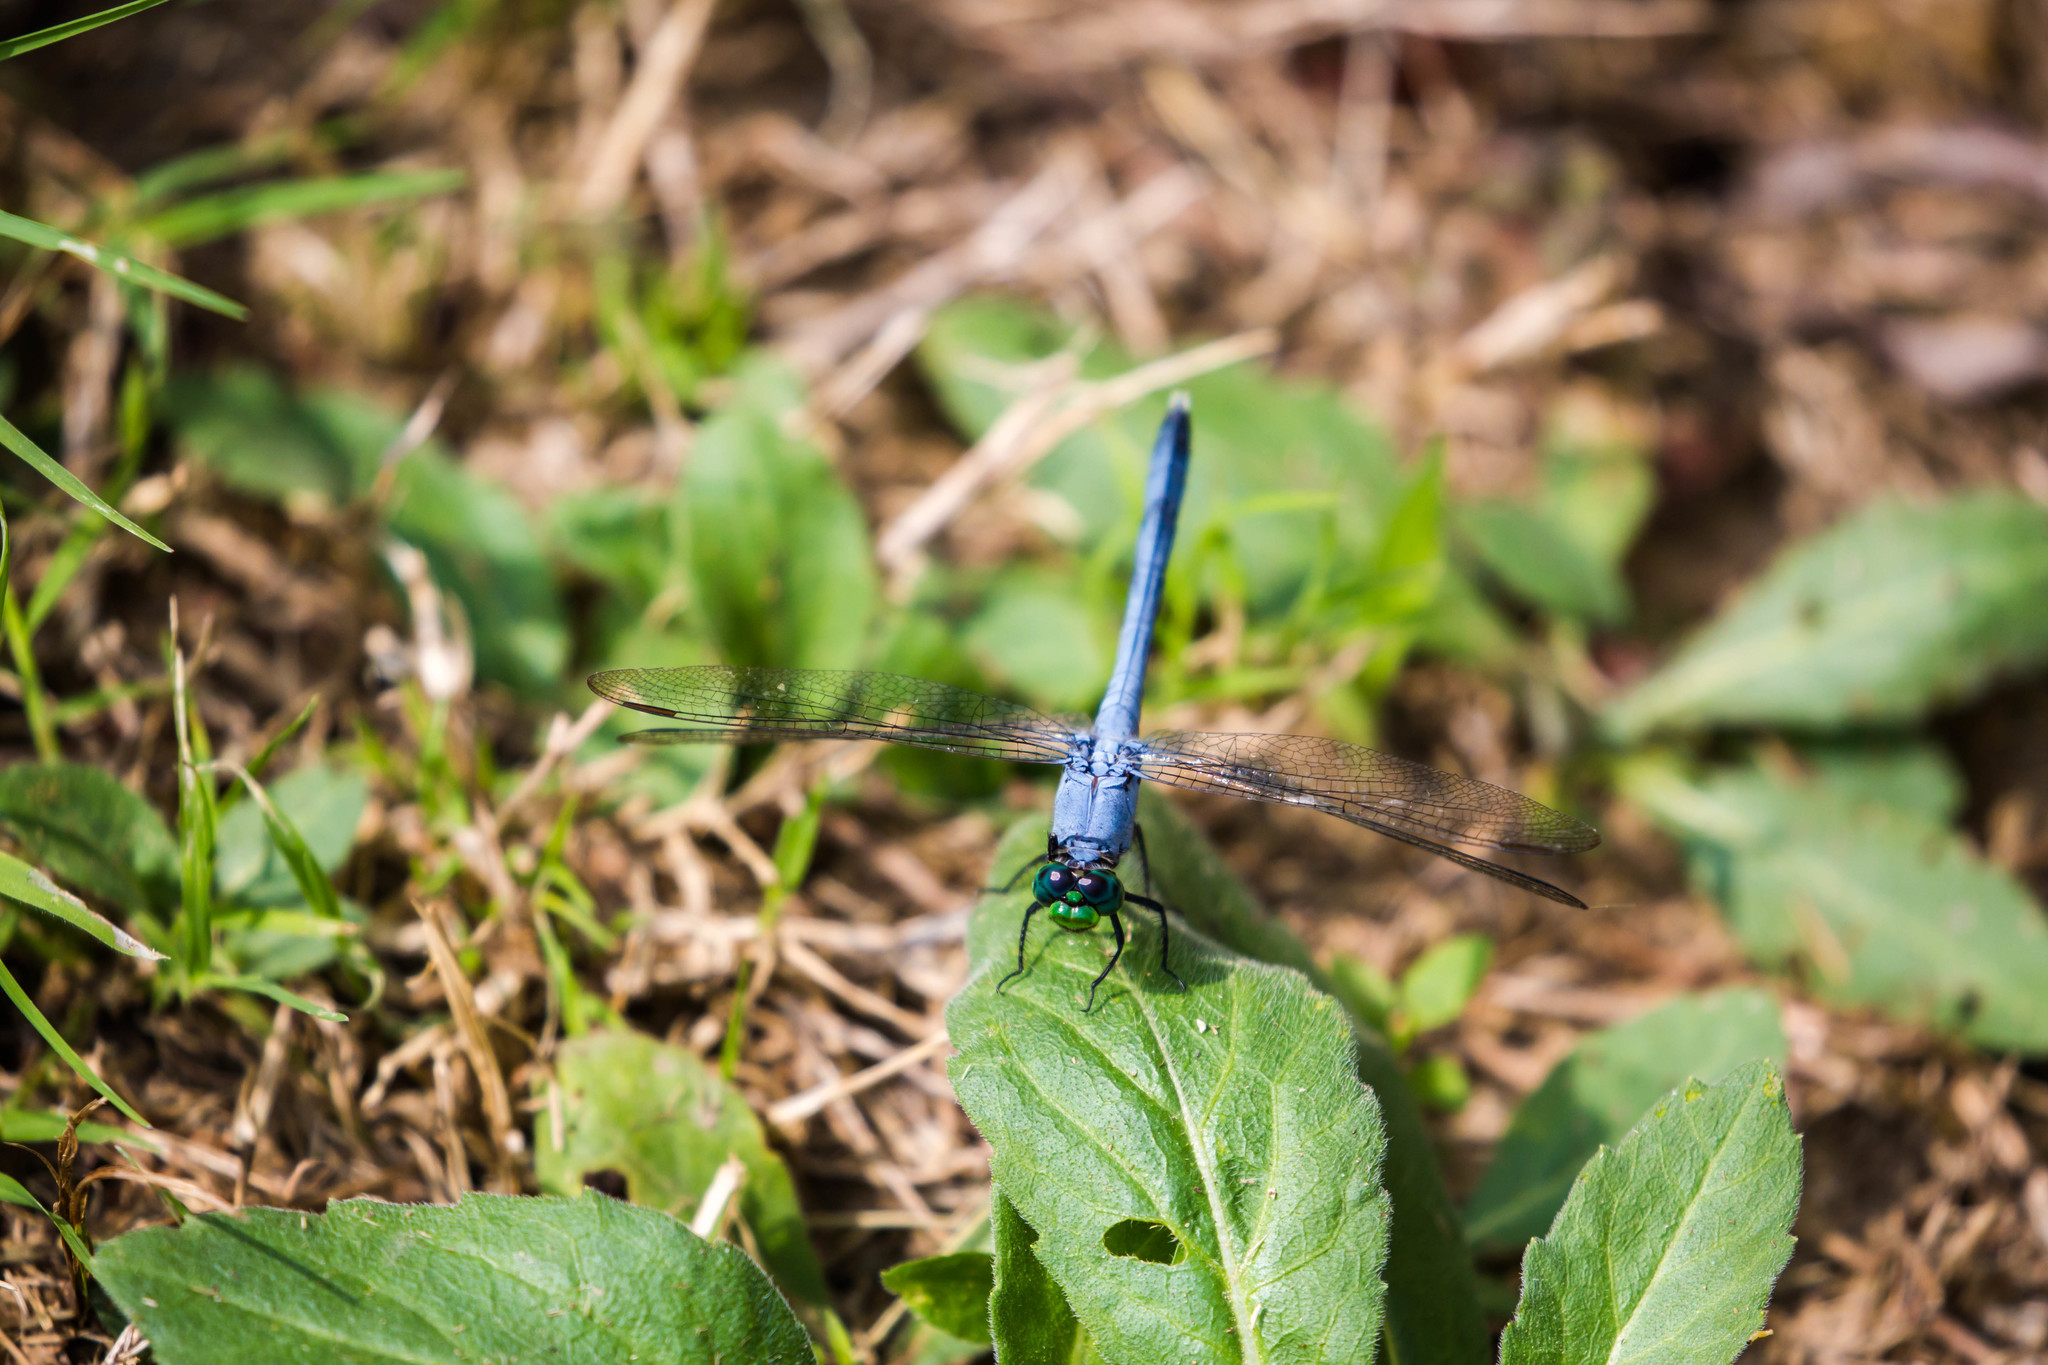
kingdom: Animalia
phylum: Arthropoda
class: Insecta
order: Odonata
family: Libellulidae
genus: Erythemis
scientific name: Erythemis simplicicollis
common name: Eastern pondhawk
